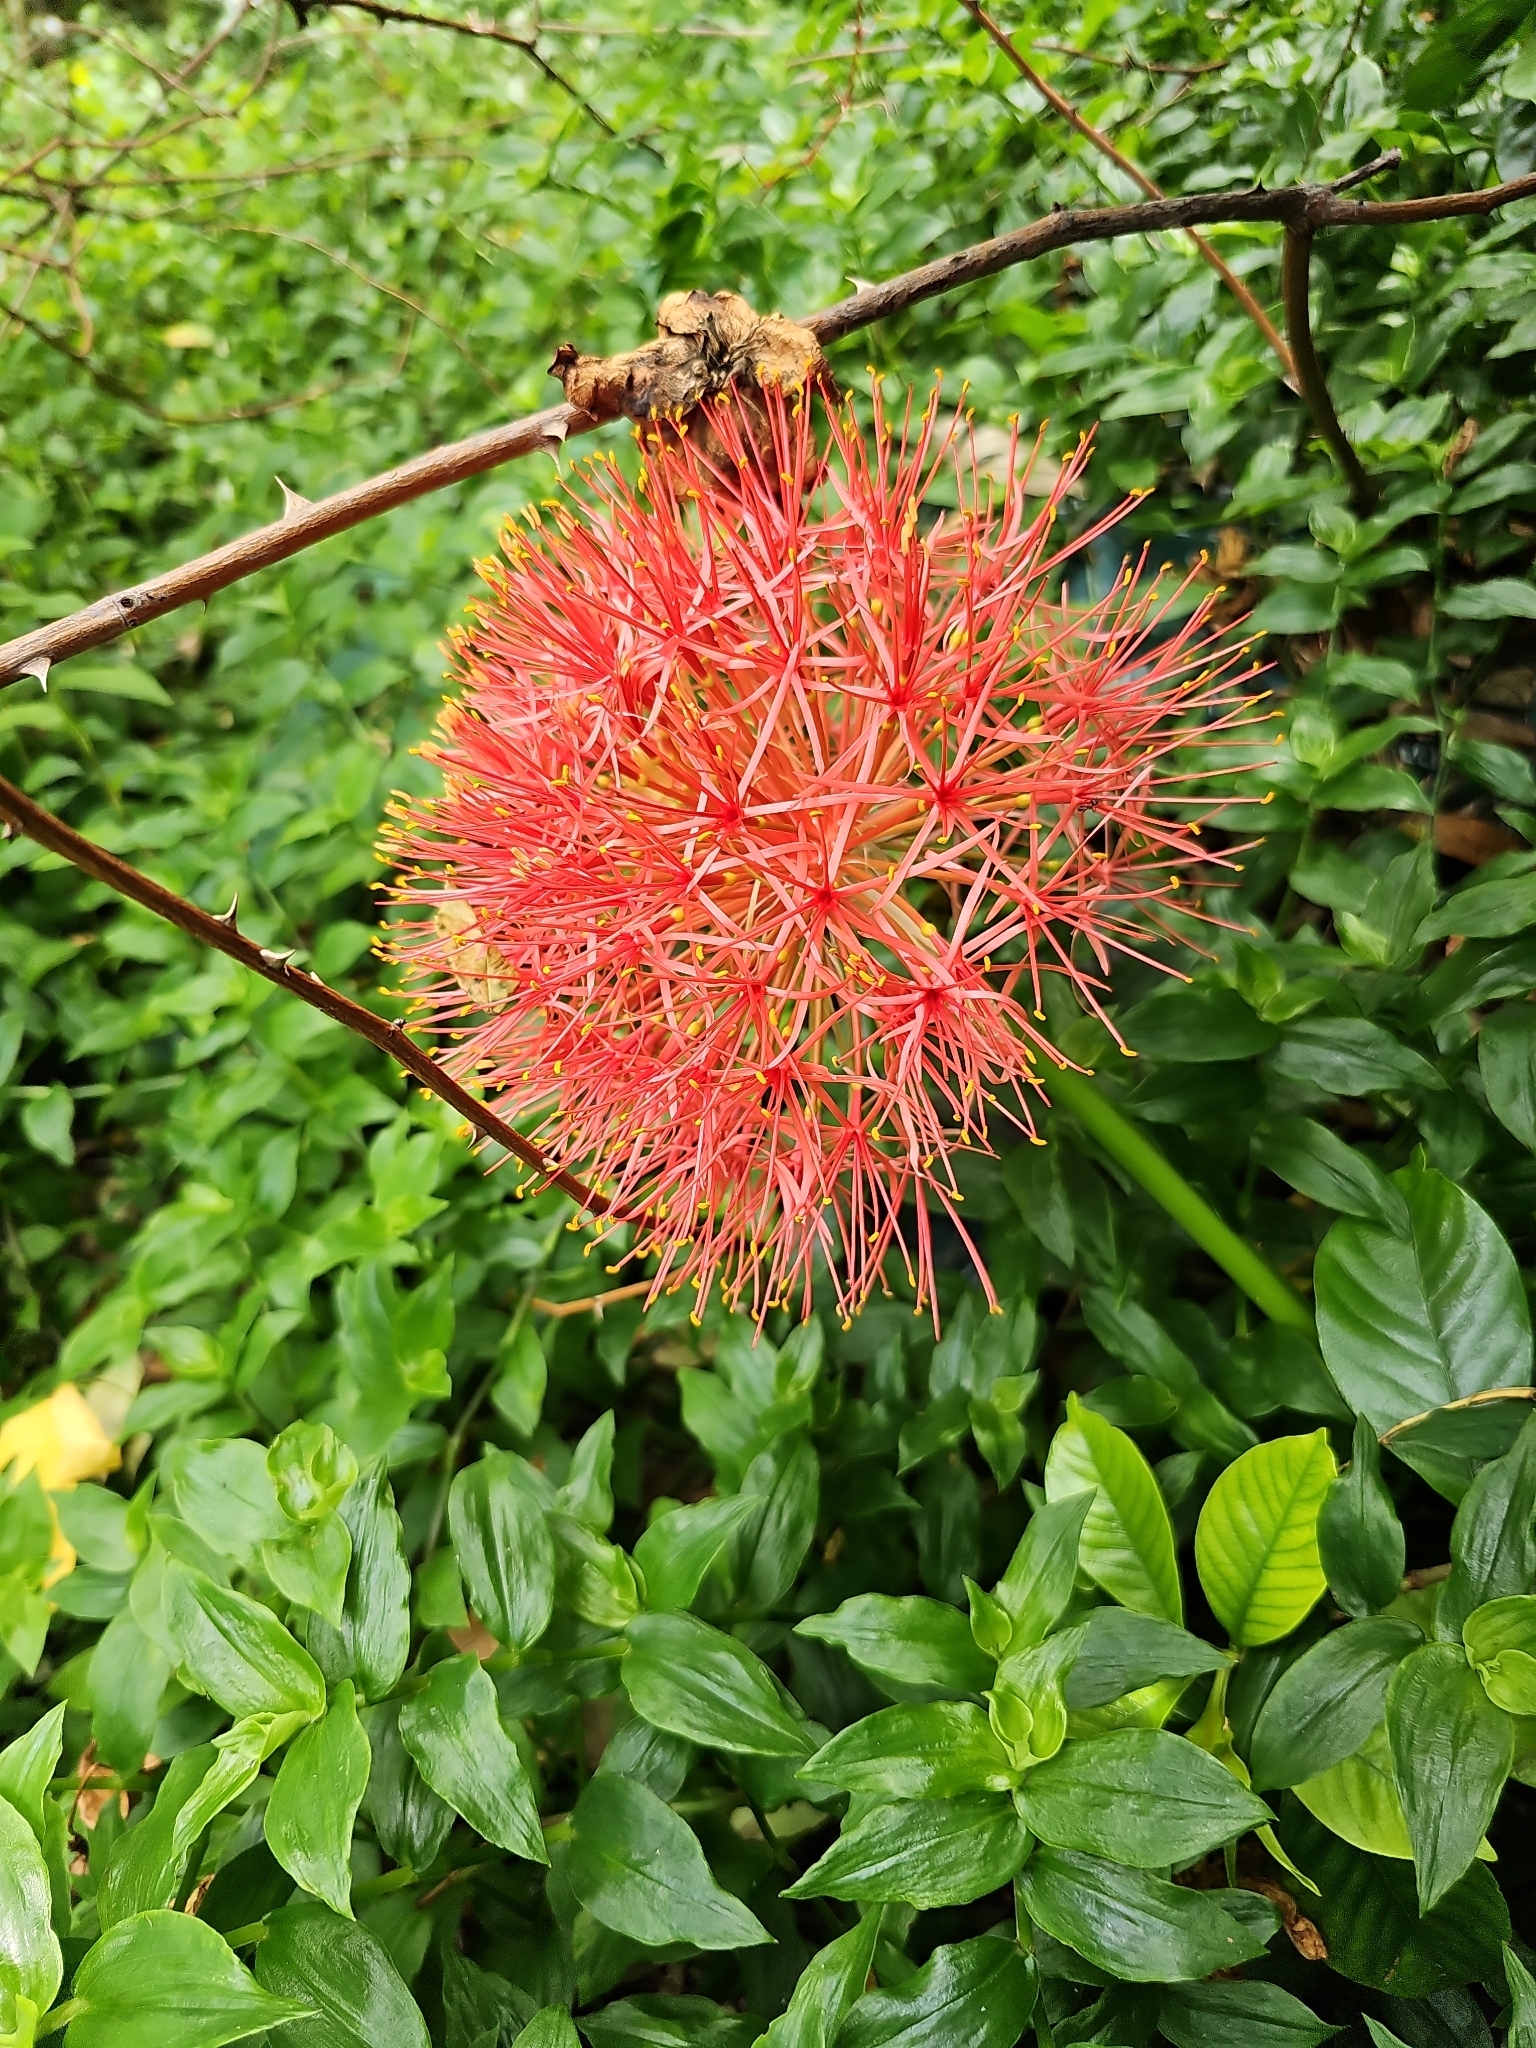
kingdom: Plantae
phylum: Tracheophyta
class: Liliopsida
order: Asparagales
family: Amaryllidaceae
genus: Scadoxus
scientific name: Scadoxus multiflorus
